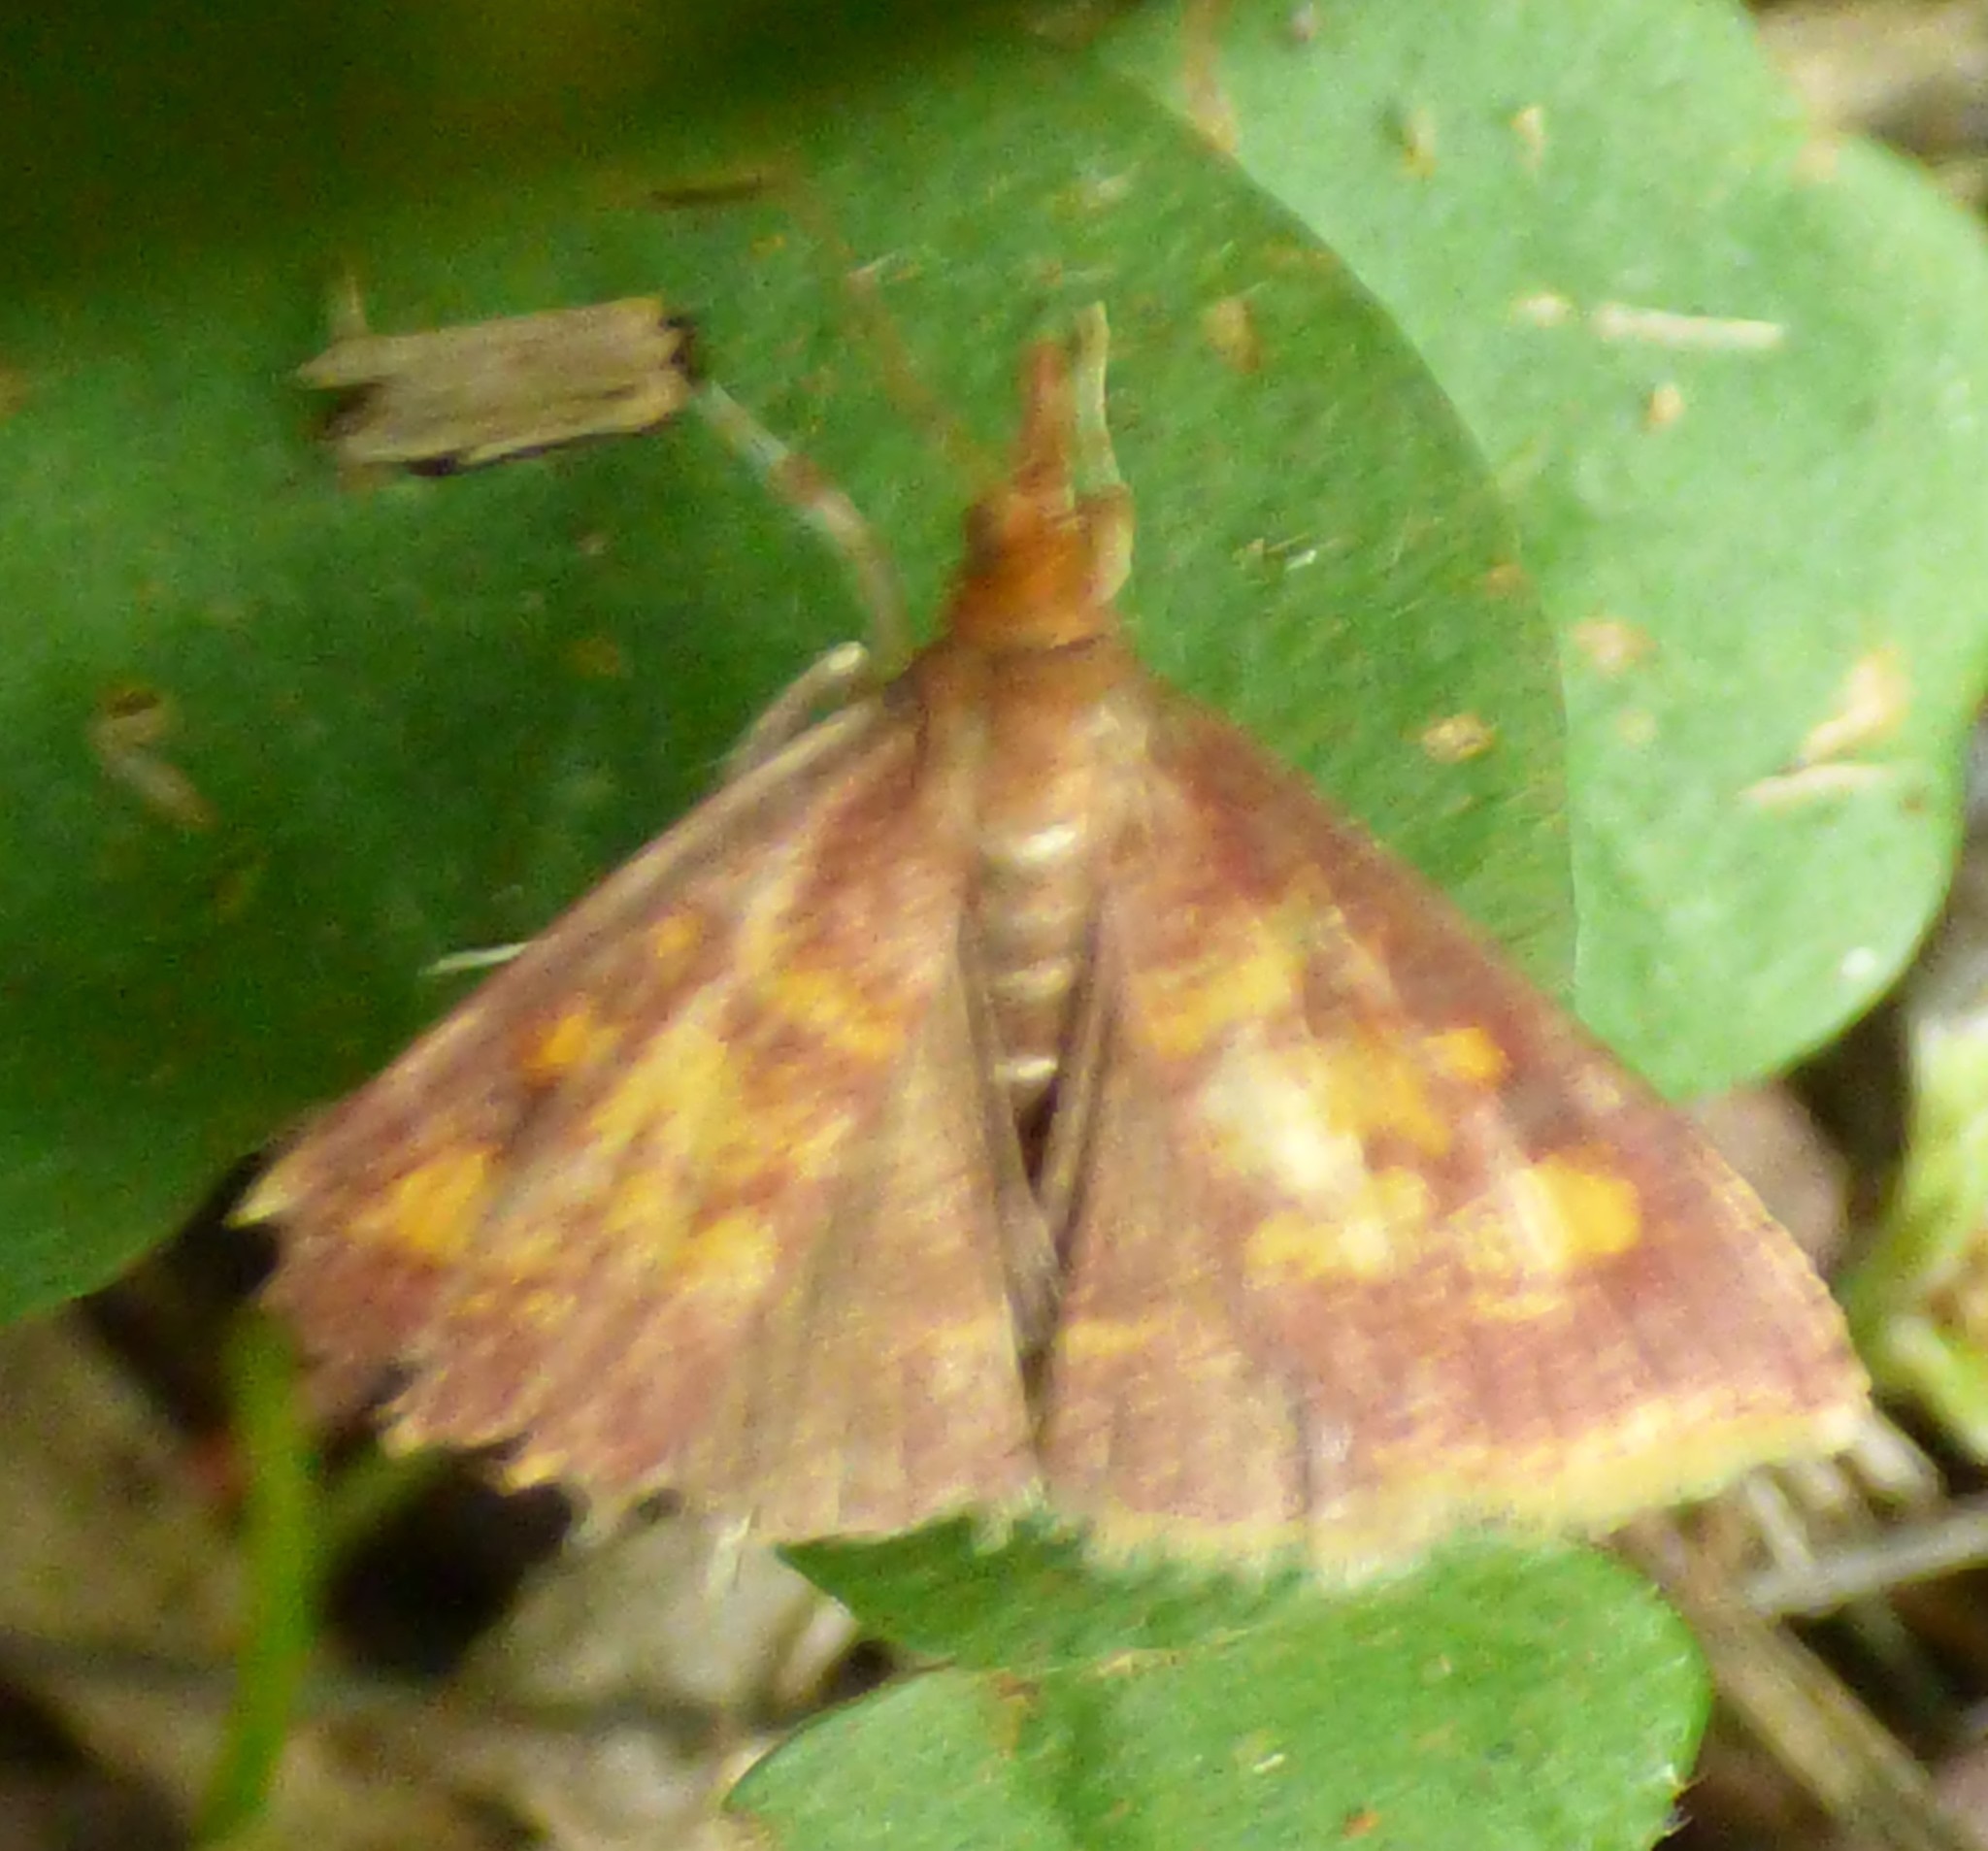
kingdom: Animalia
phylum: Arthropoda
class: Insecta
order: Lepidoptera
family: Crambidae
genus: Pyrausta
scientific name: Pyrausta acrionalis
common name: Mint-loving pyrausta moth
